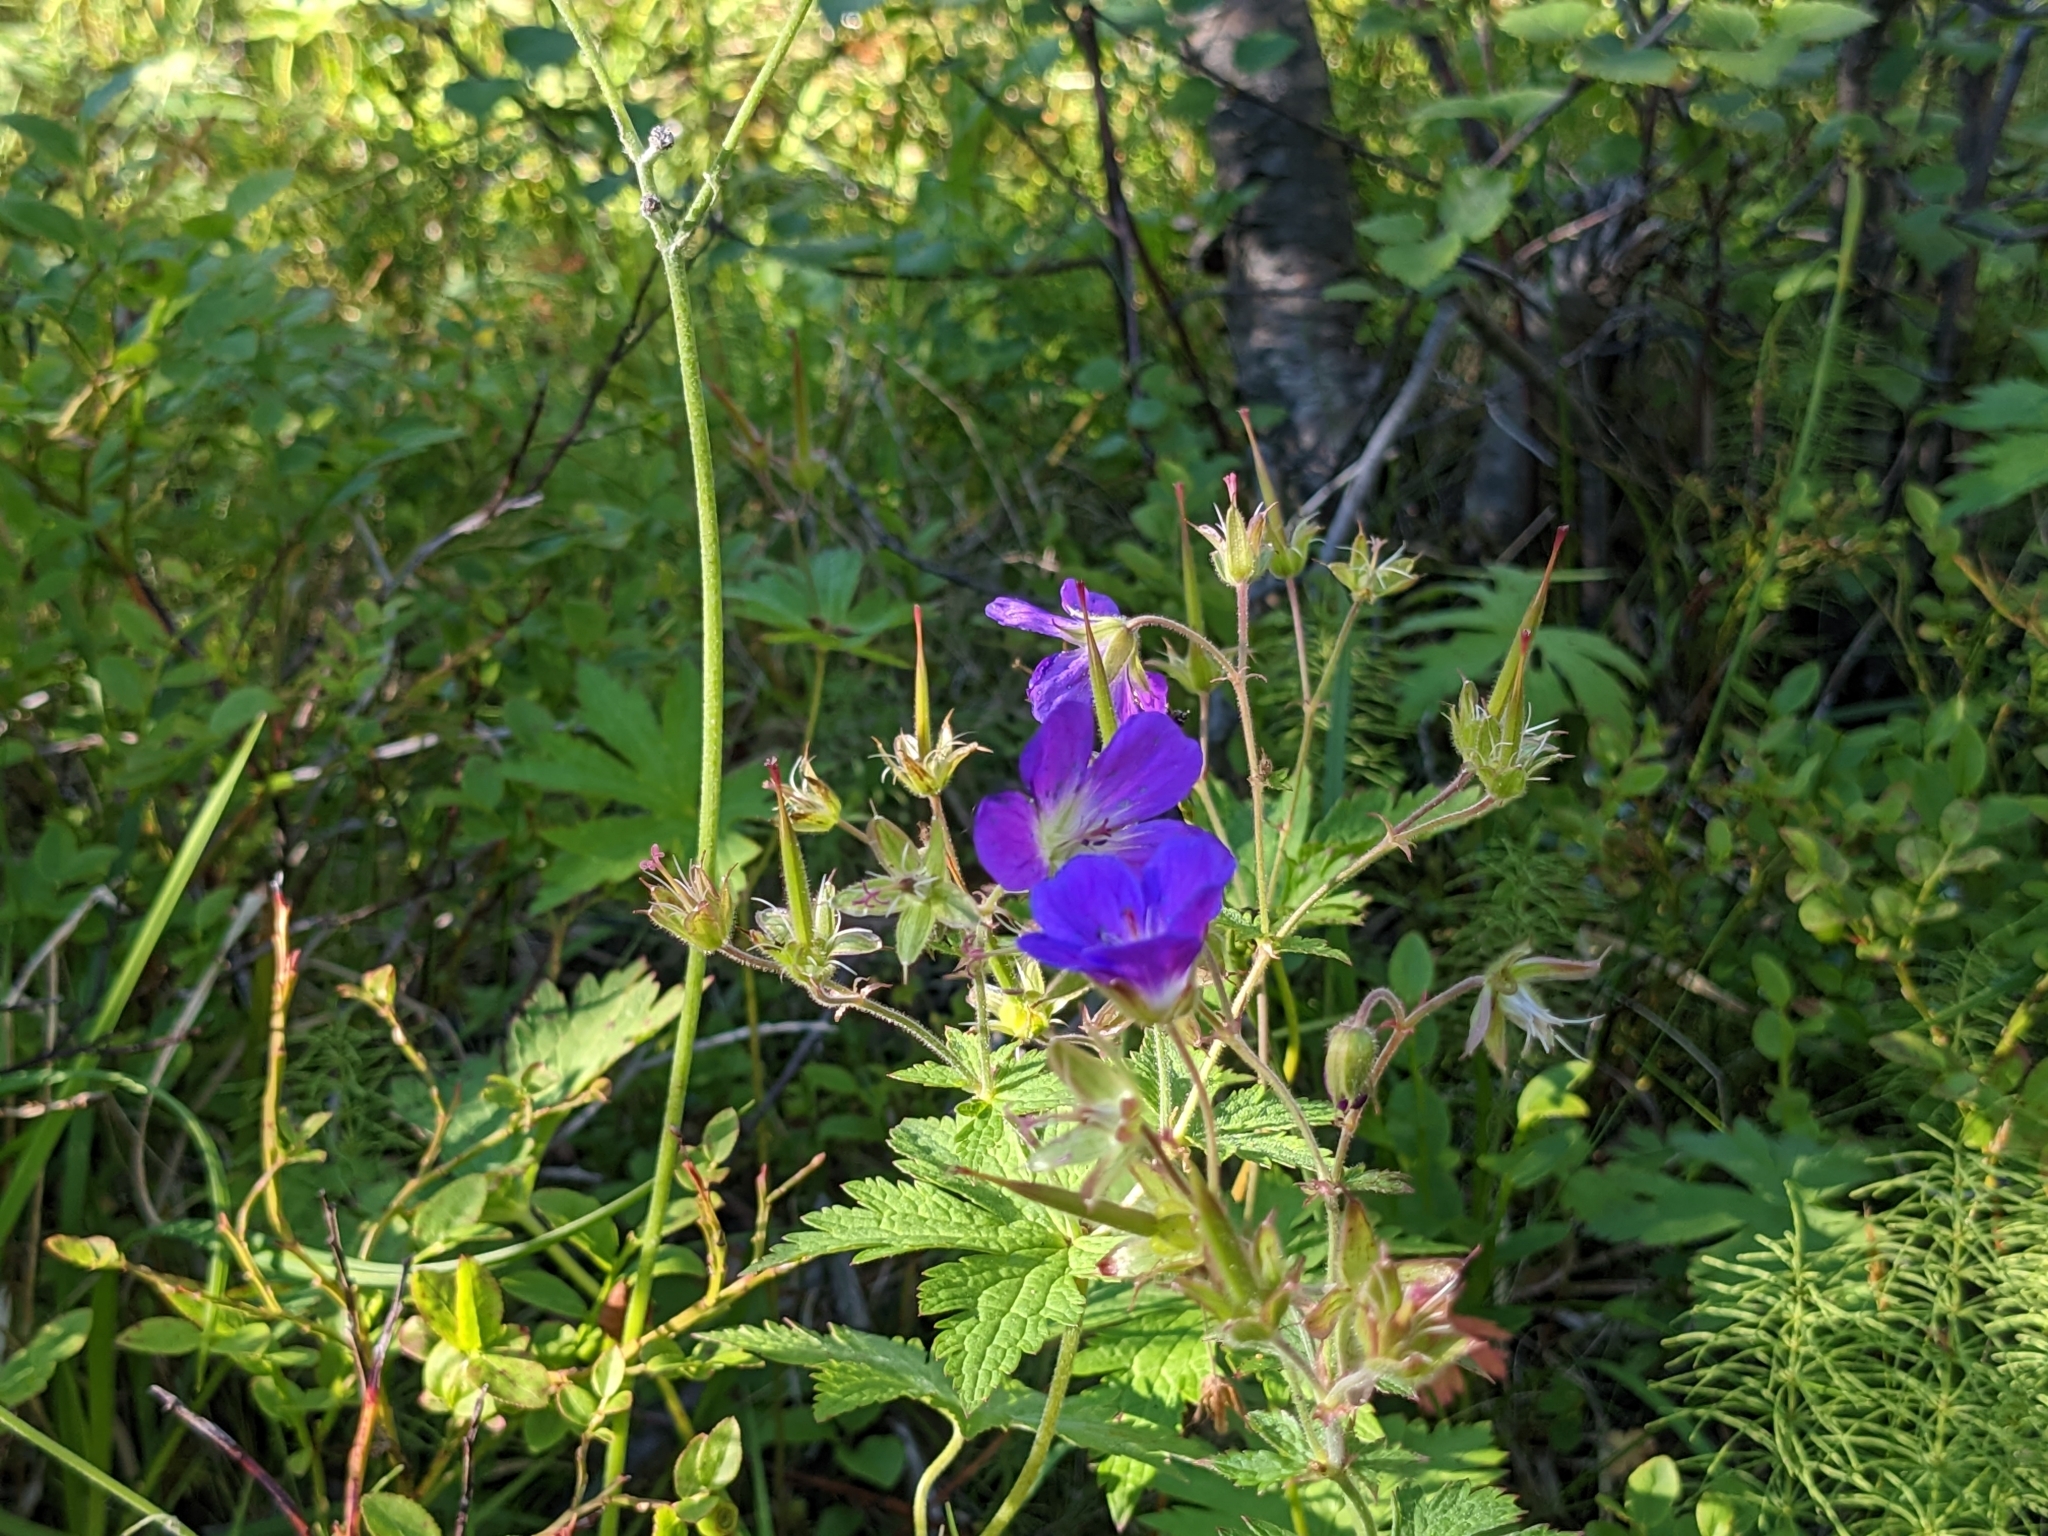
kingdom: Plantae
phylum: Tracheophyta
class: Magnoliopsida
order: Geraniales
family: Geraniaceae
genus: Geranium
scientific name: Geranium sylvaticum
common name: Wood crane's-bill
